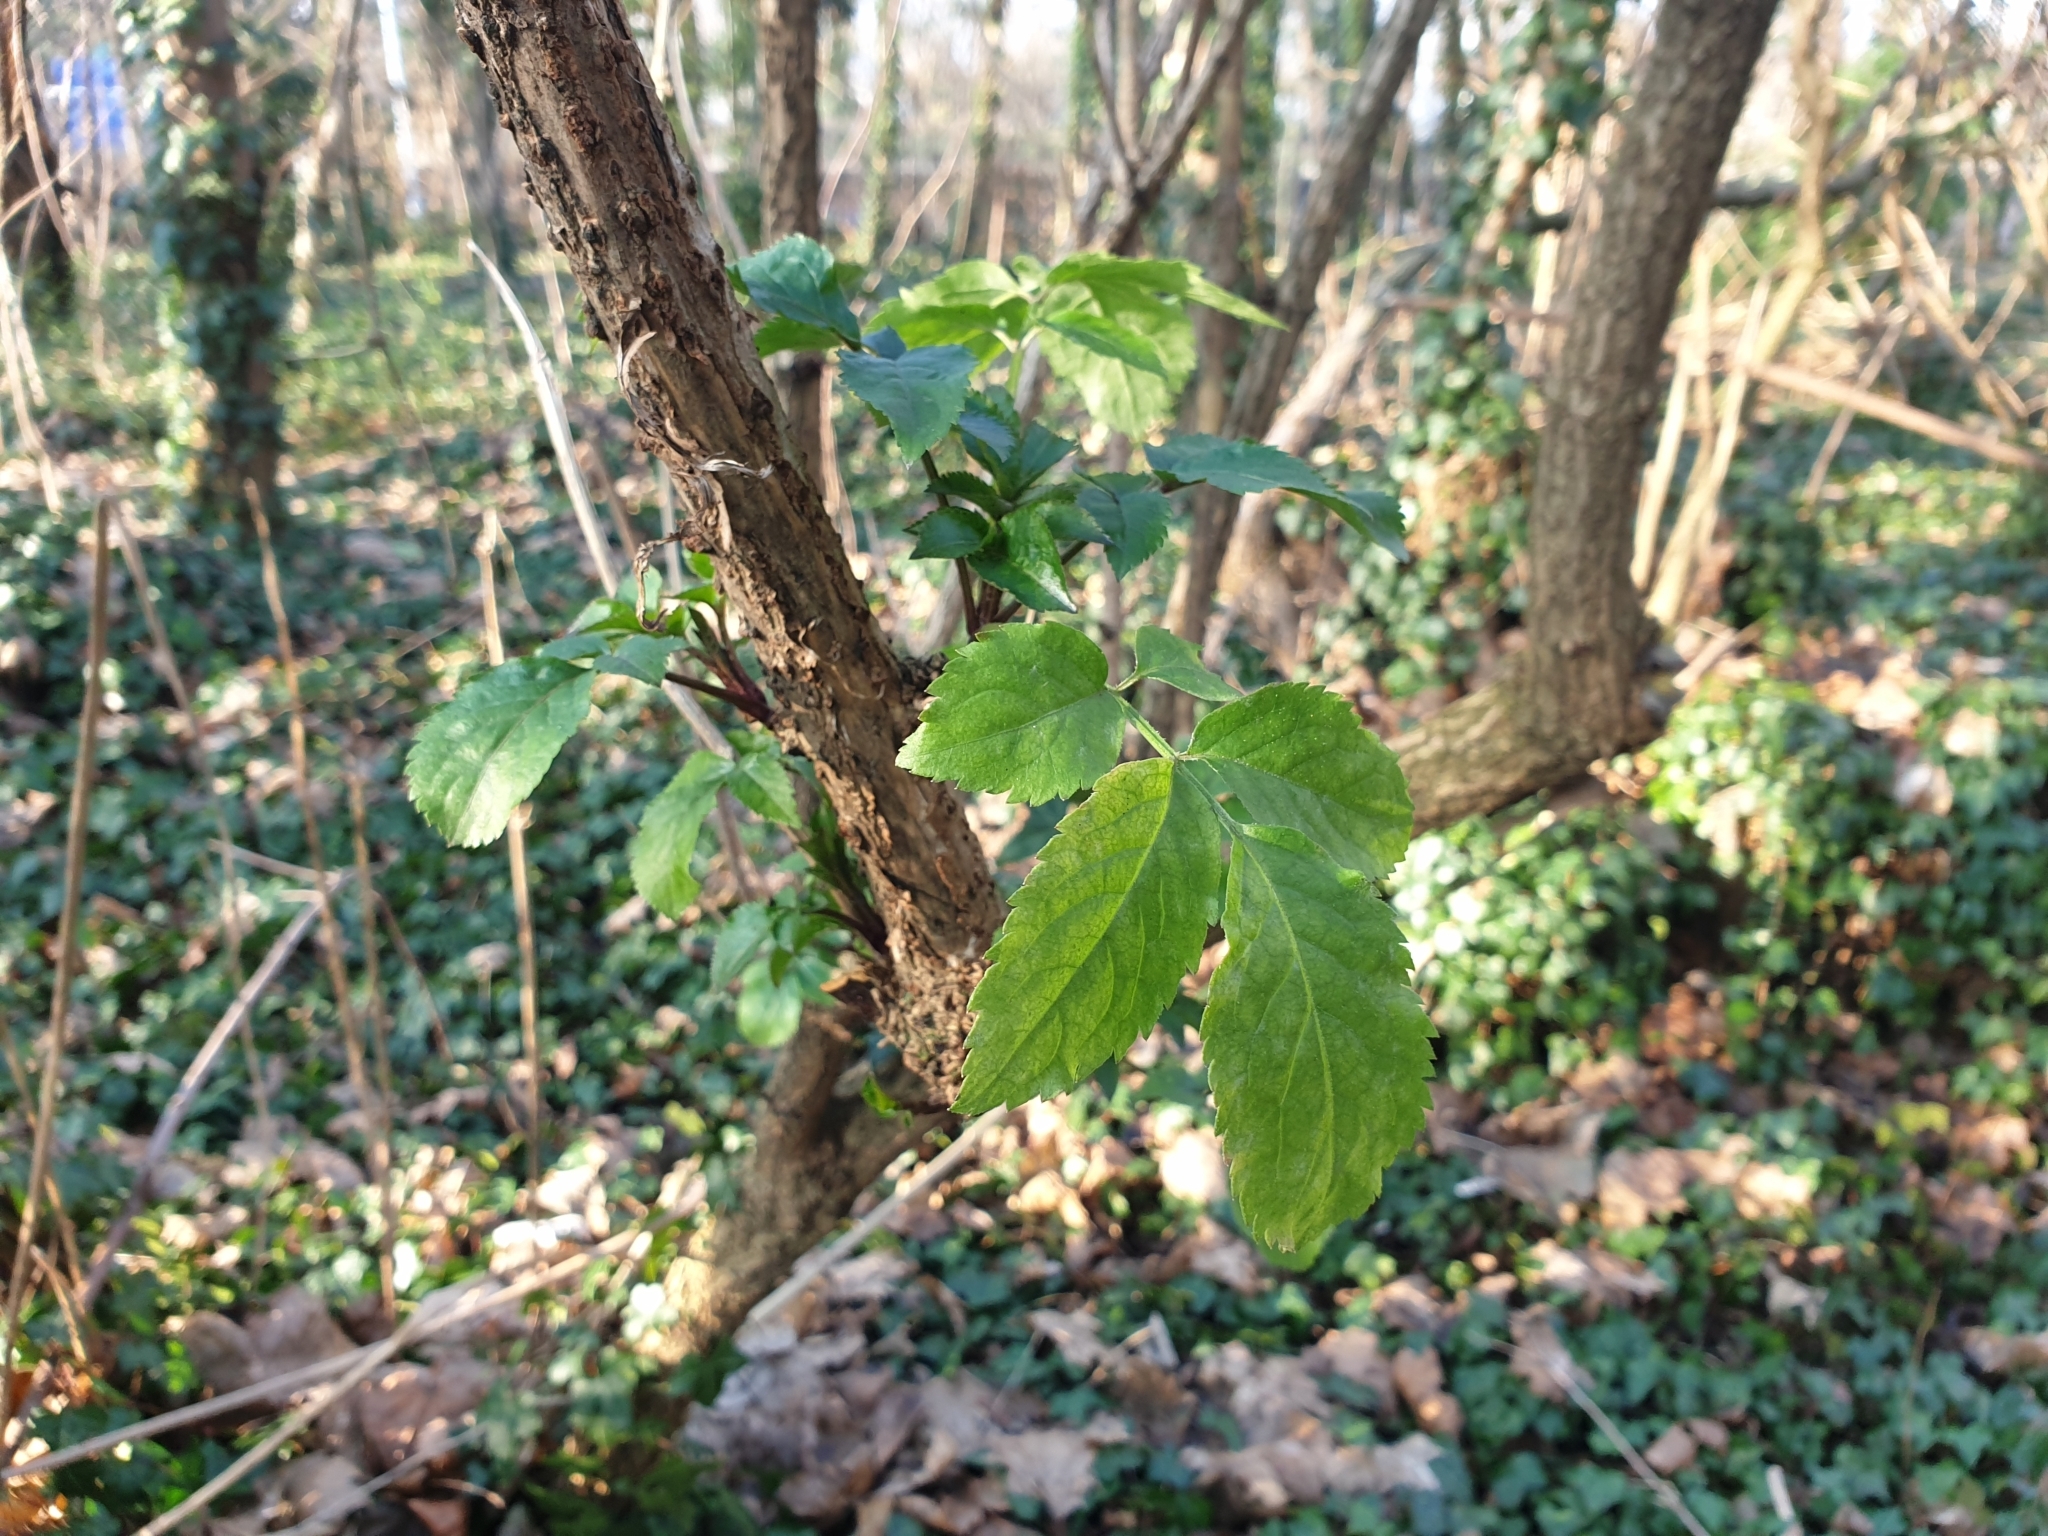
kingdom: Plantae
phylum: Tracheophyta
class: Magnoliopsida
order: Dipsacales
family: Viburnaceae
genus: Sambucus
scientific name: Sambucus nigra
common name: Elder
